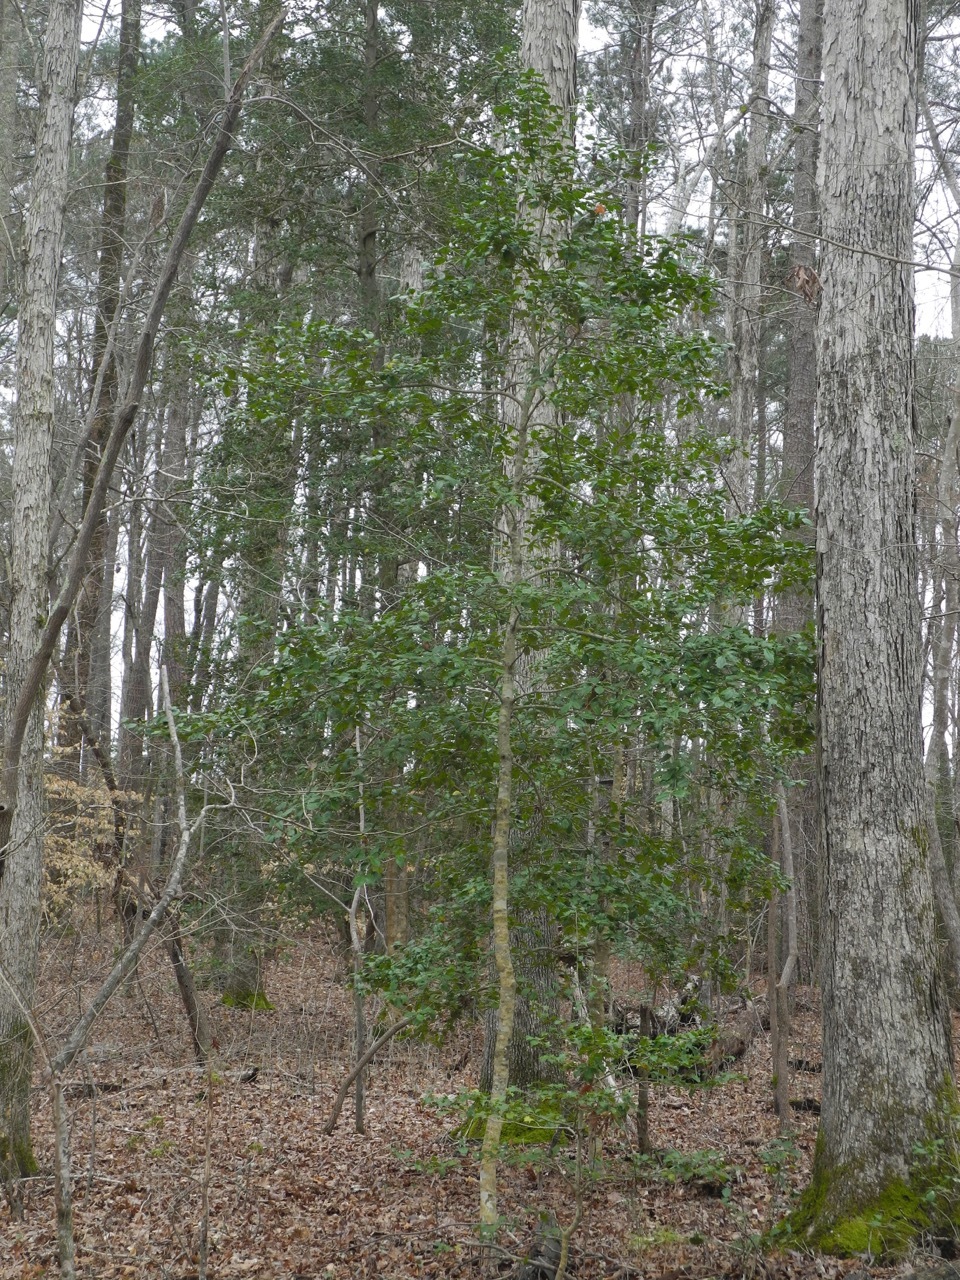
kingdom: Plantae
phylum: Tracheophyta
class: Magnoliopsida
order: Aquifoliales
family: Aquifoliaceae
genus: Ilex
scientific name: Ilex opaca
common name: American holly
